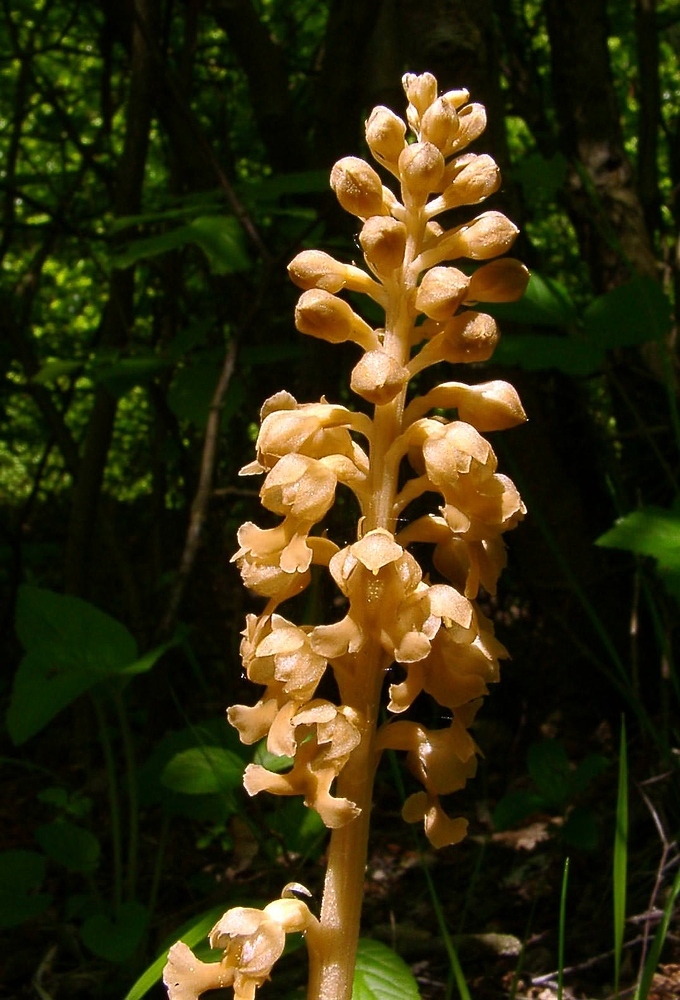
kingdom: Plantae
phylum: Tracheophyta
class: Liliopsida
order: Asparagales
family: Orchidaceae
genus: Neottia
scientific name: Neottia nidus-avis
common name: Bird's-nest orchid
